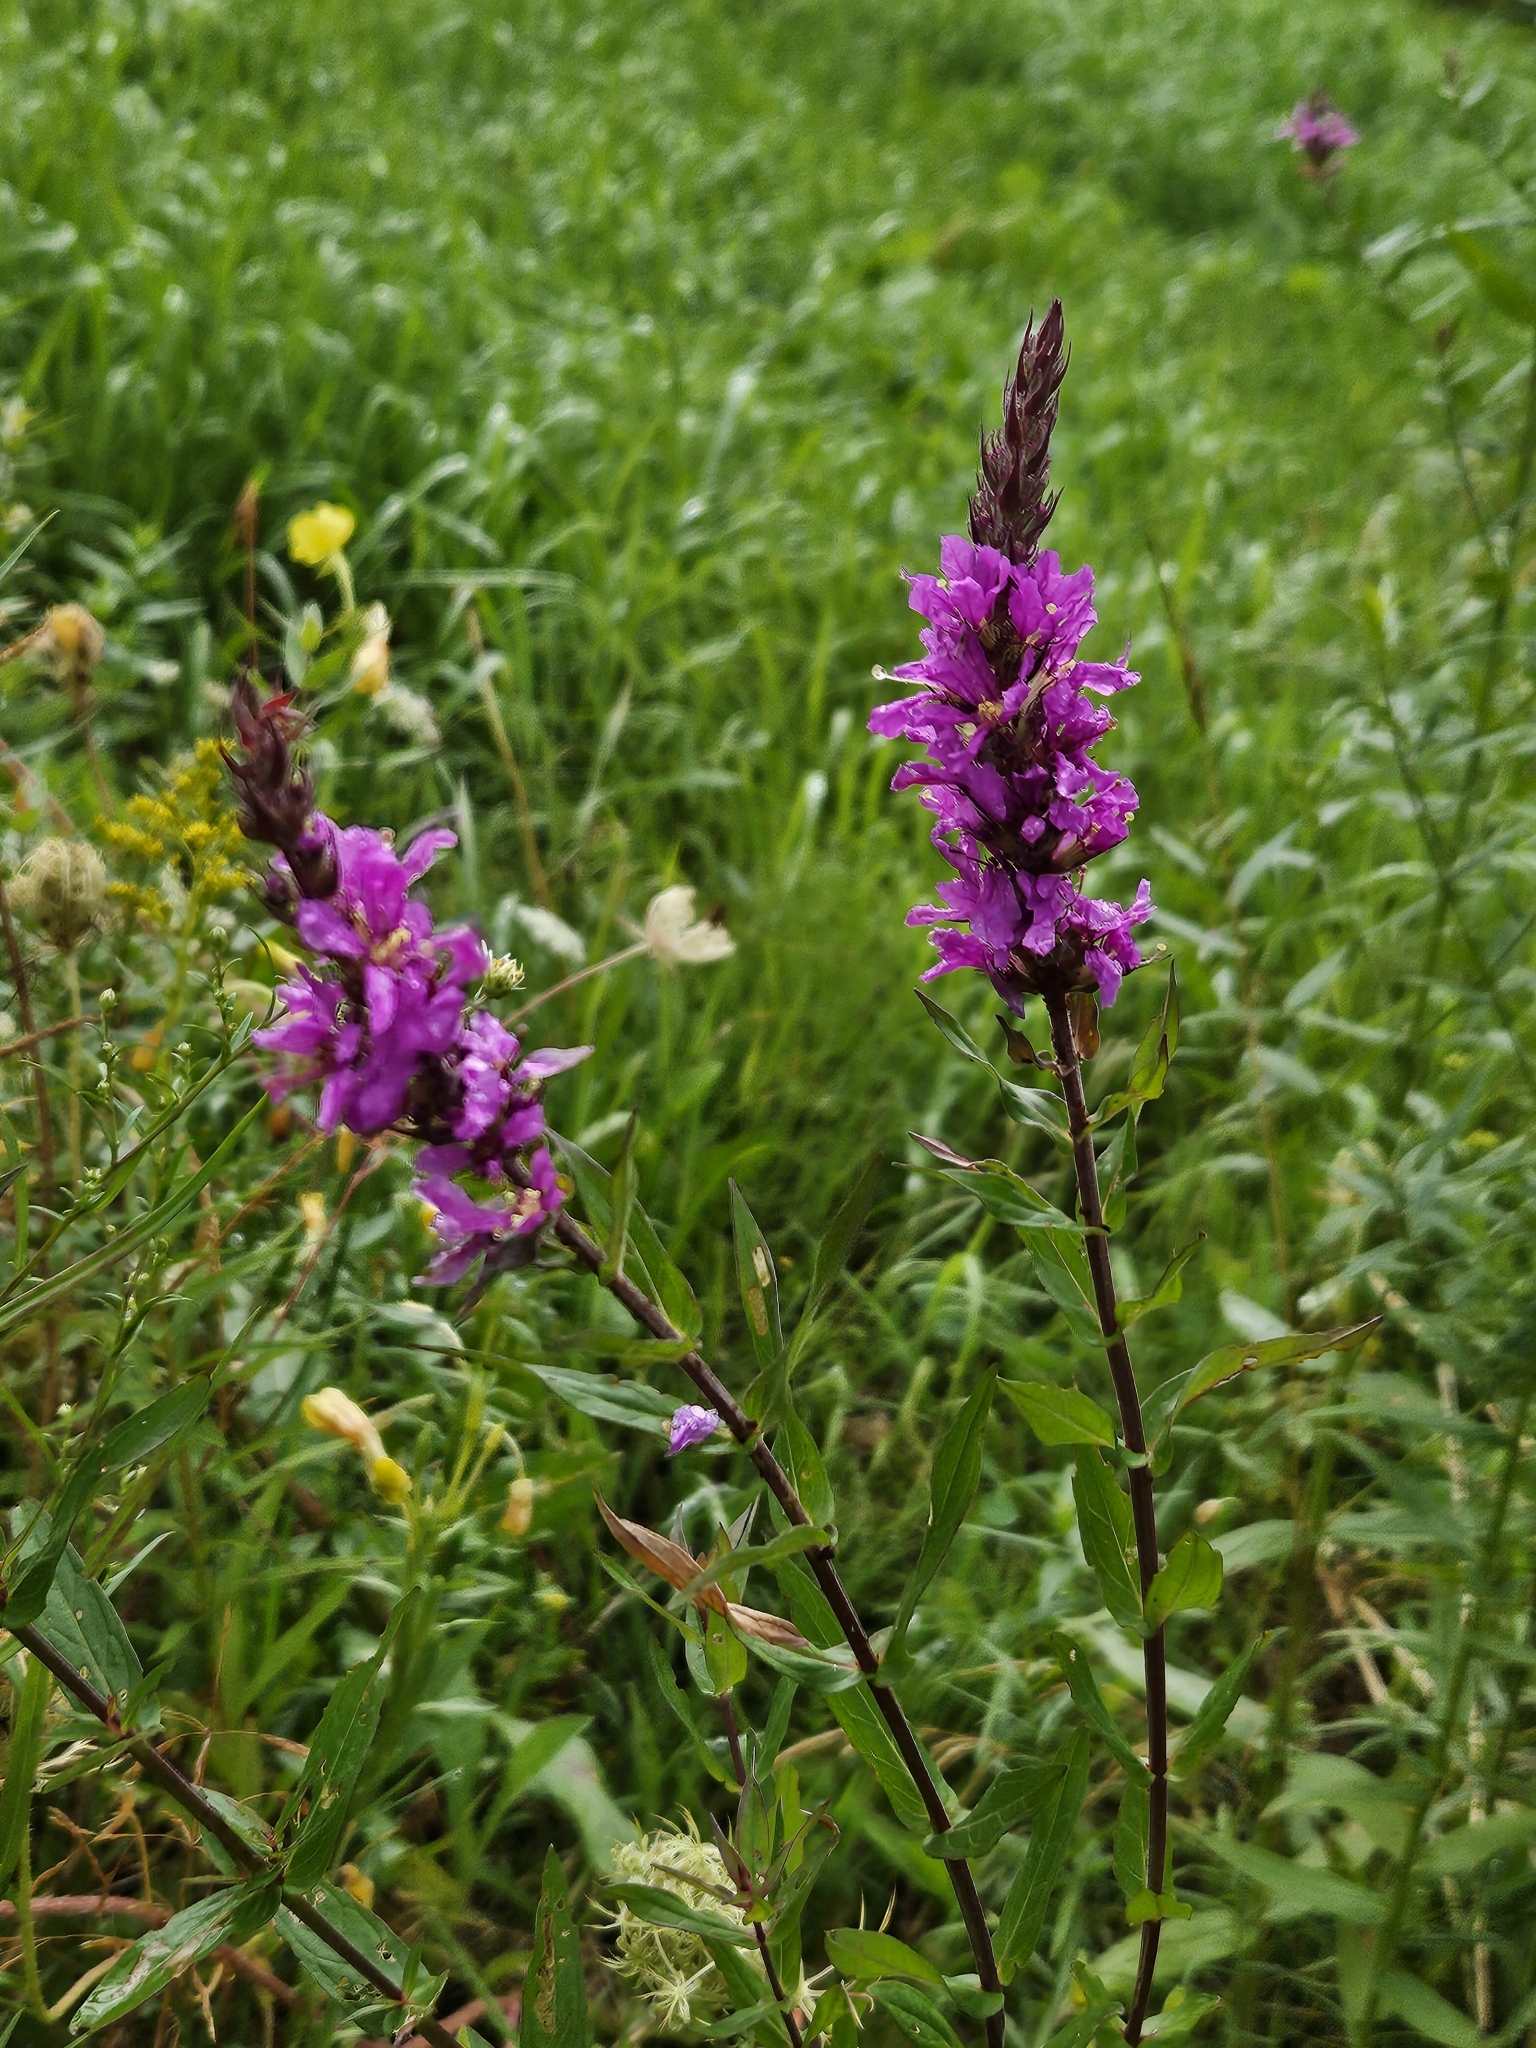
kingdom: Plantae
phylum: Tracheophyta
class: Magnoliopsida
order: Myrtales
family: Lythraceae
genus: Lythrum
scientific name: Lythrum salicaria
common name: Purple loosestrife
